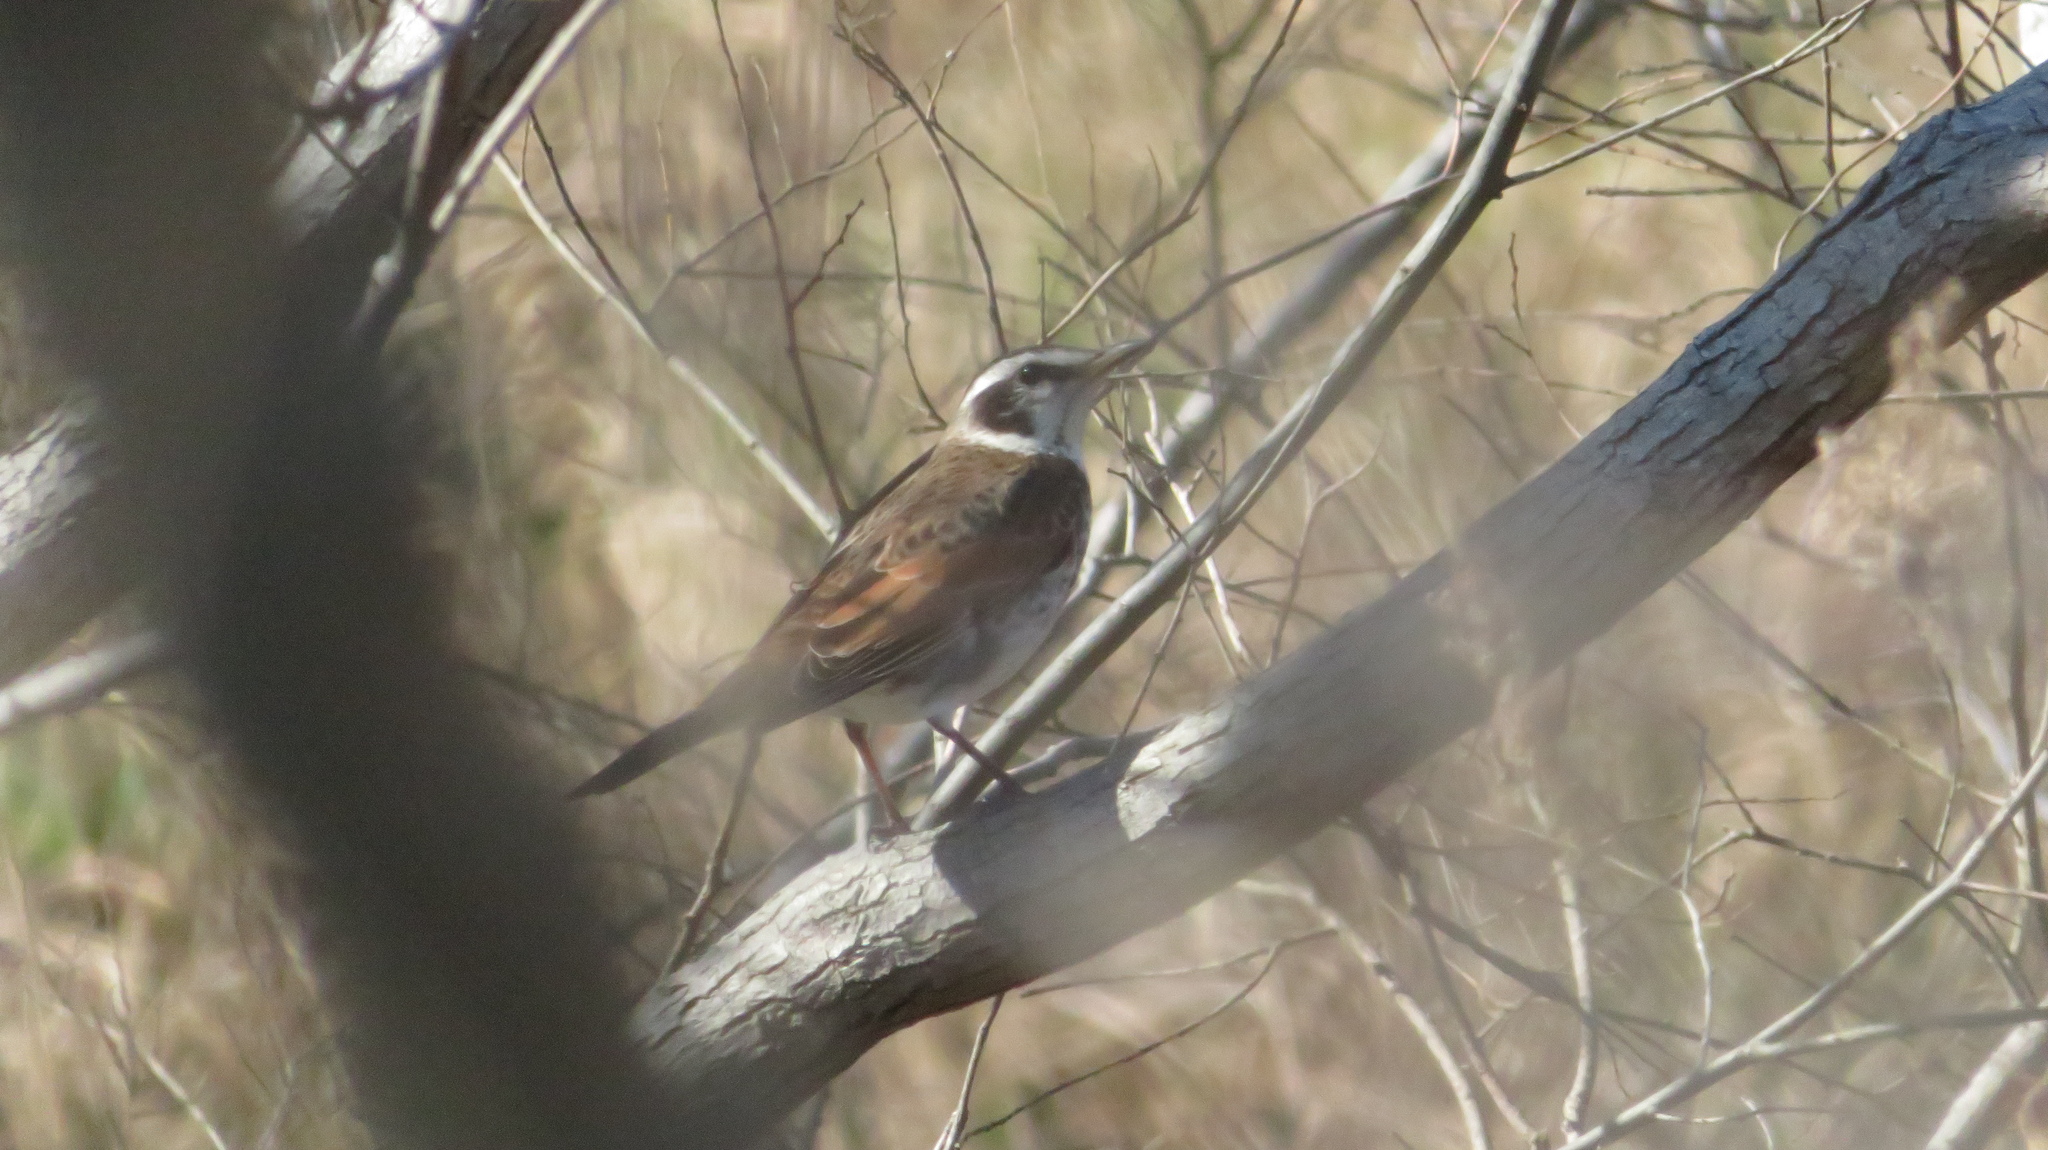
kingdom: Animalia
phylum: Chordata
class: Aves
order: Passeriformes
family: Turdidae
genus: Turdus
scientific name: Turdus eunomus
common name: Dusky thrush
